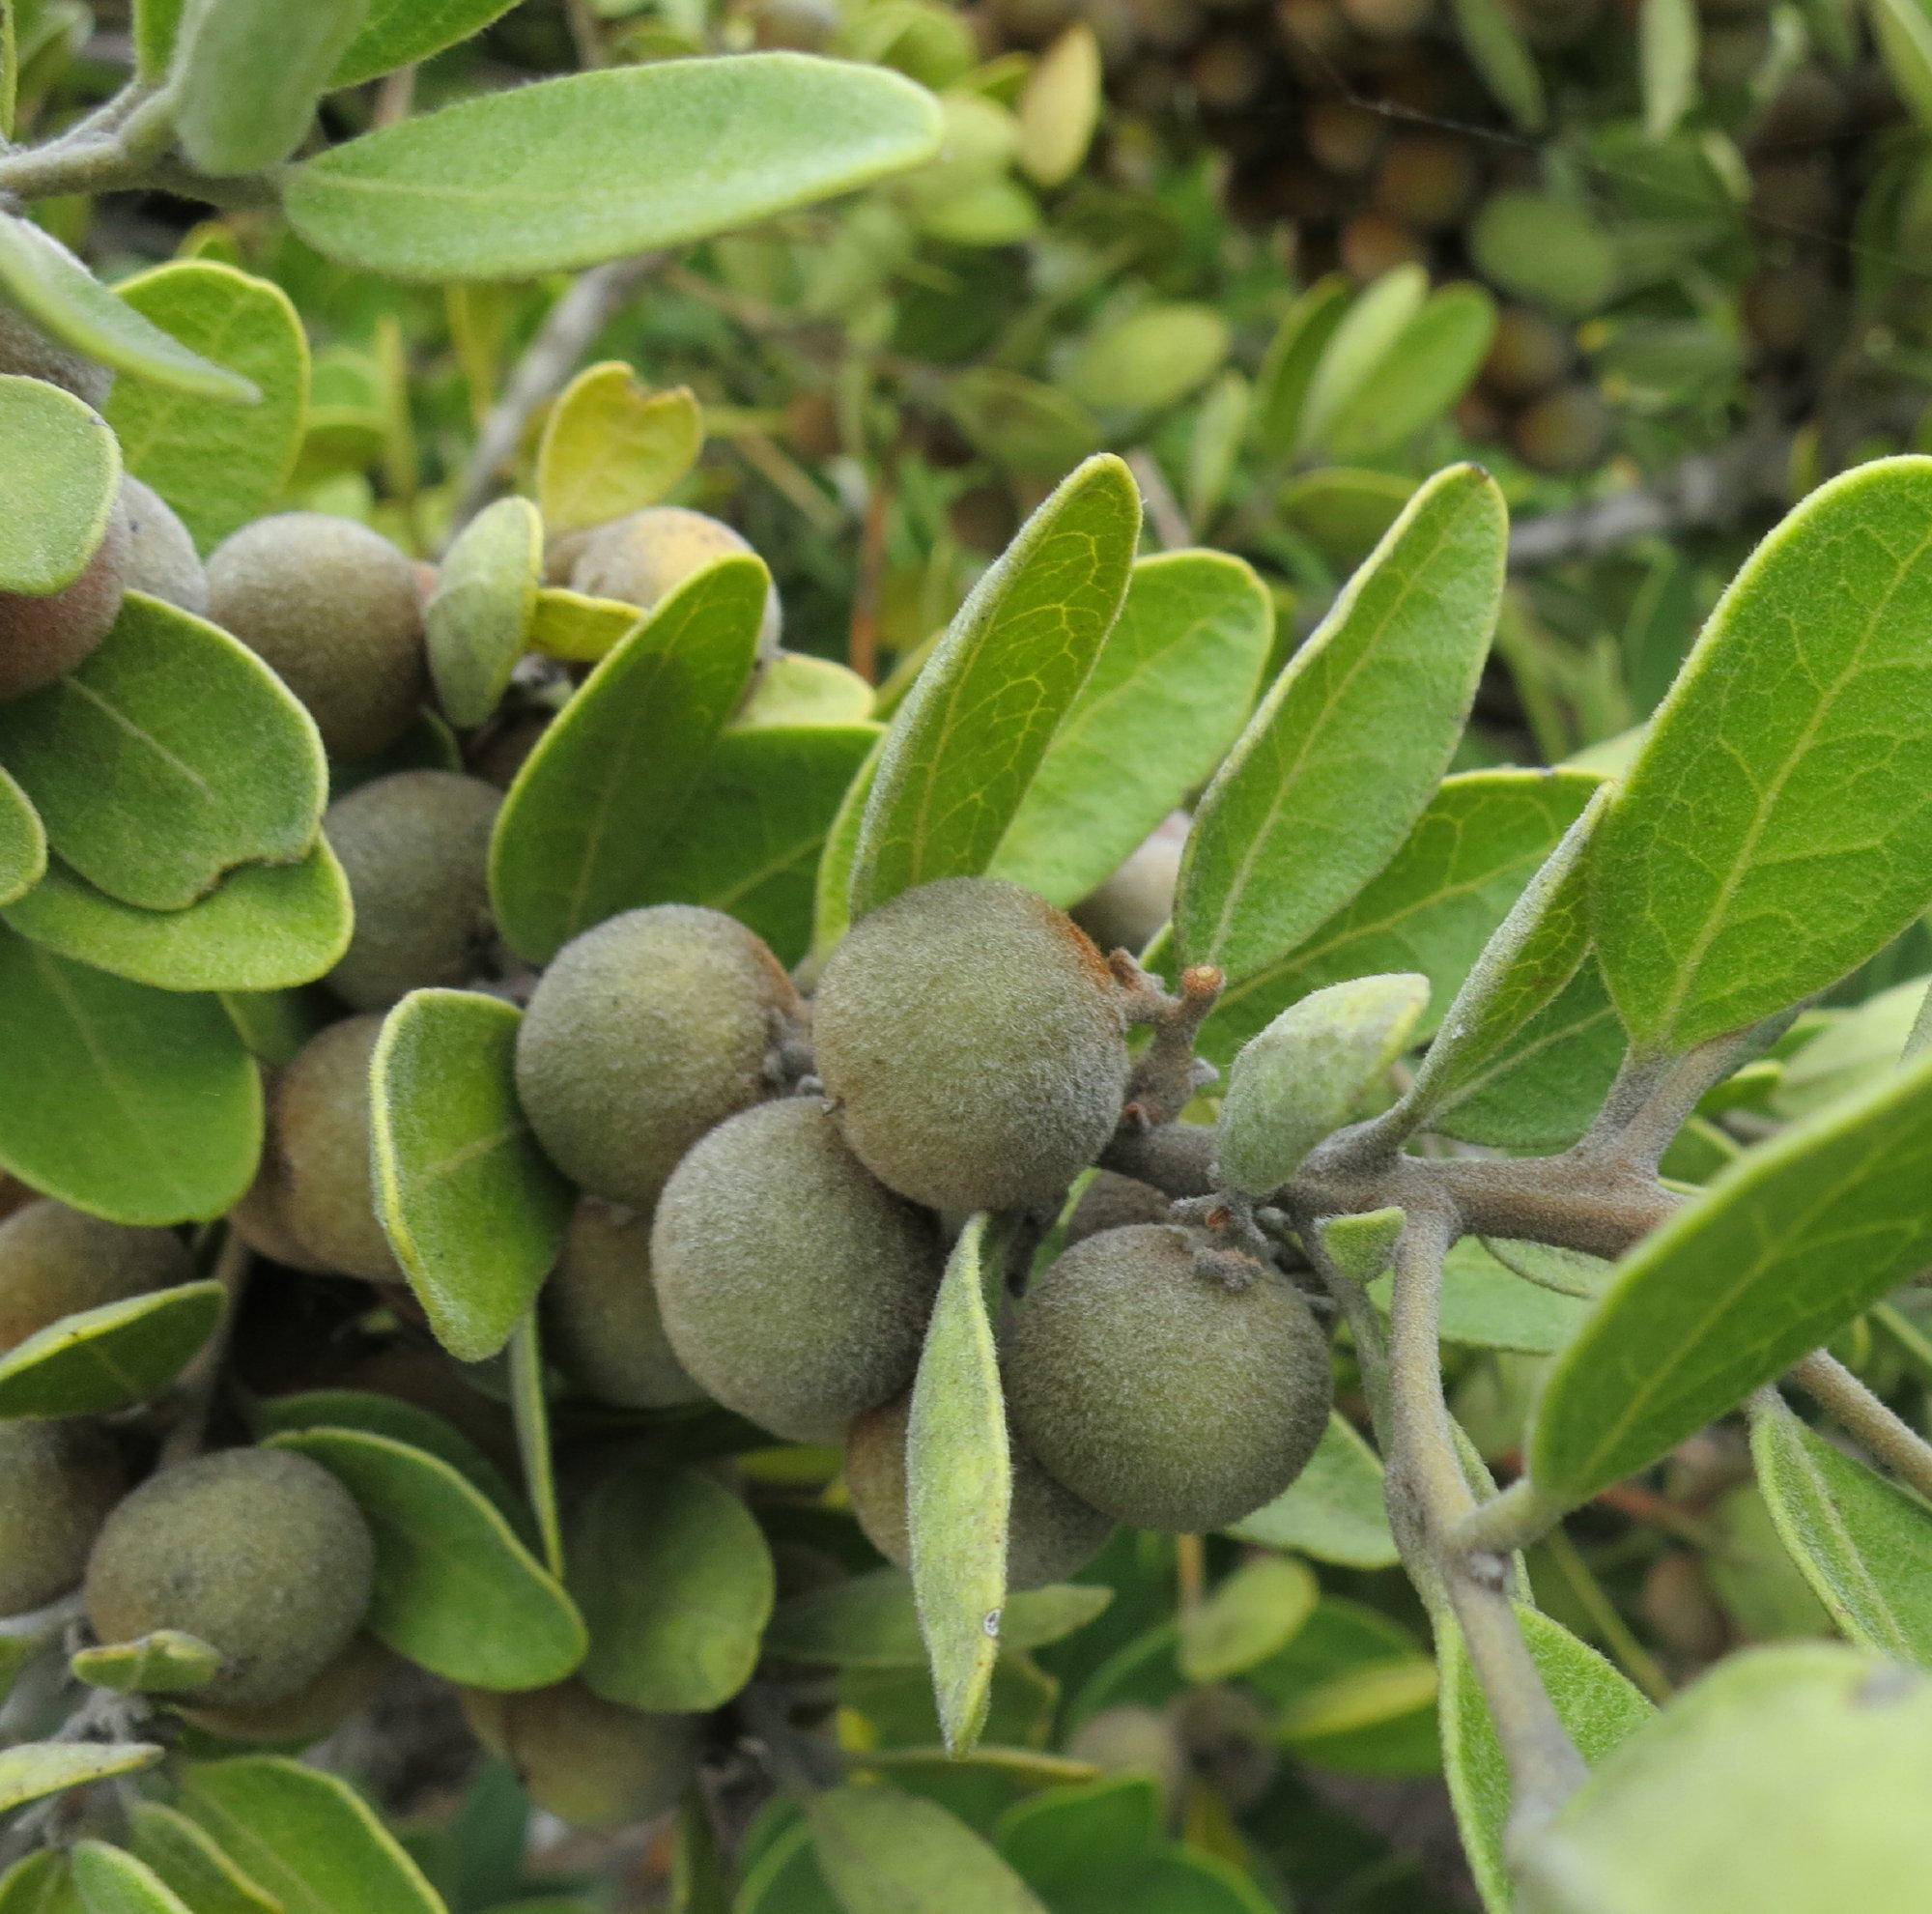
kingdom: Plantae
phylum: Tracheophyta
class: Magnoliopsida
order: Ericales
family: Ebenaceae
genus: Euclea
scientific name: Euclea polyandra
